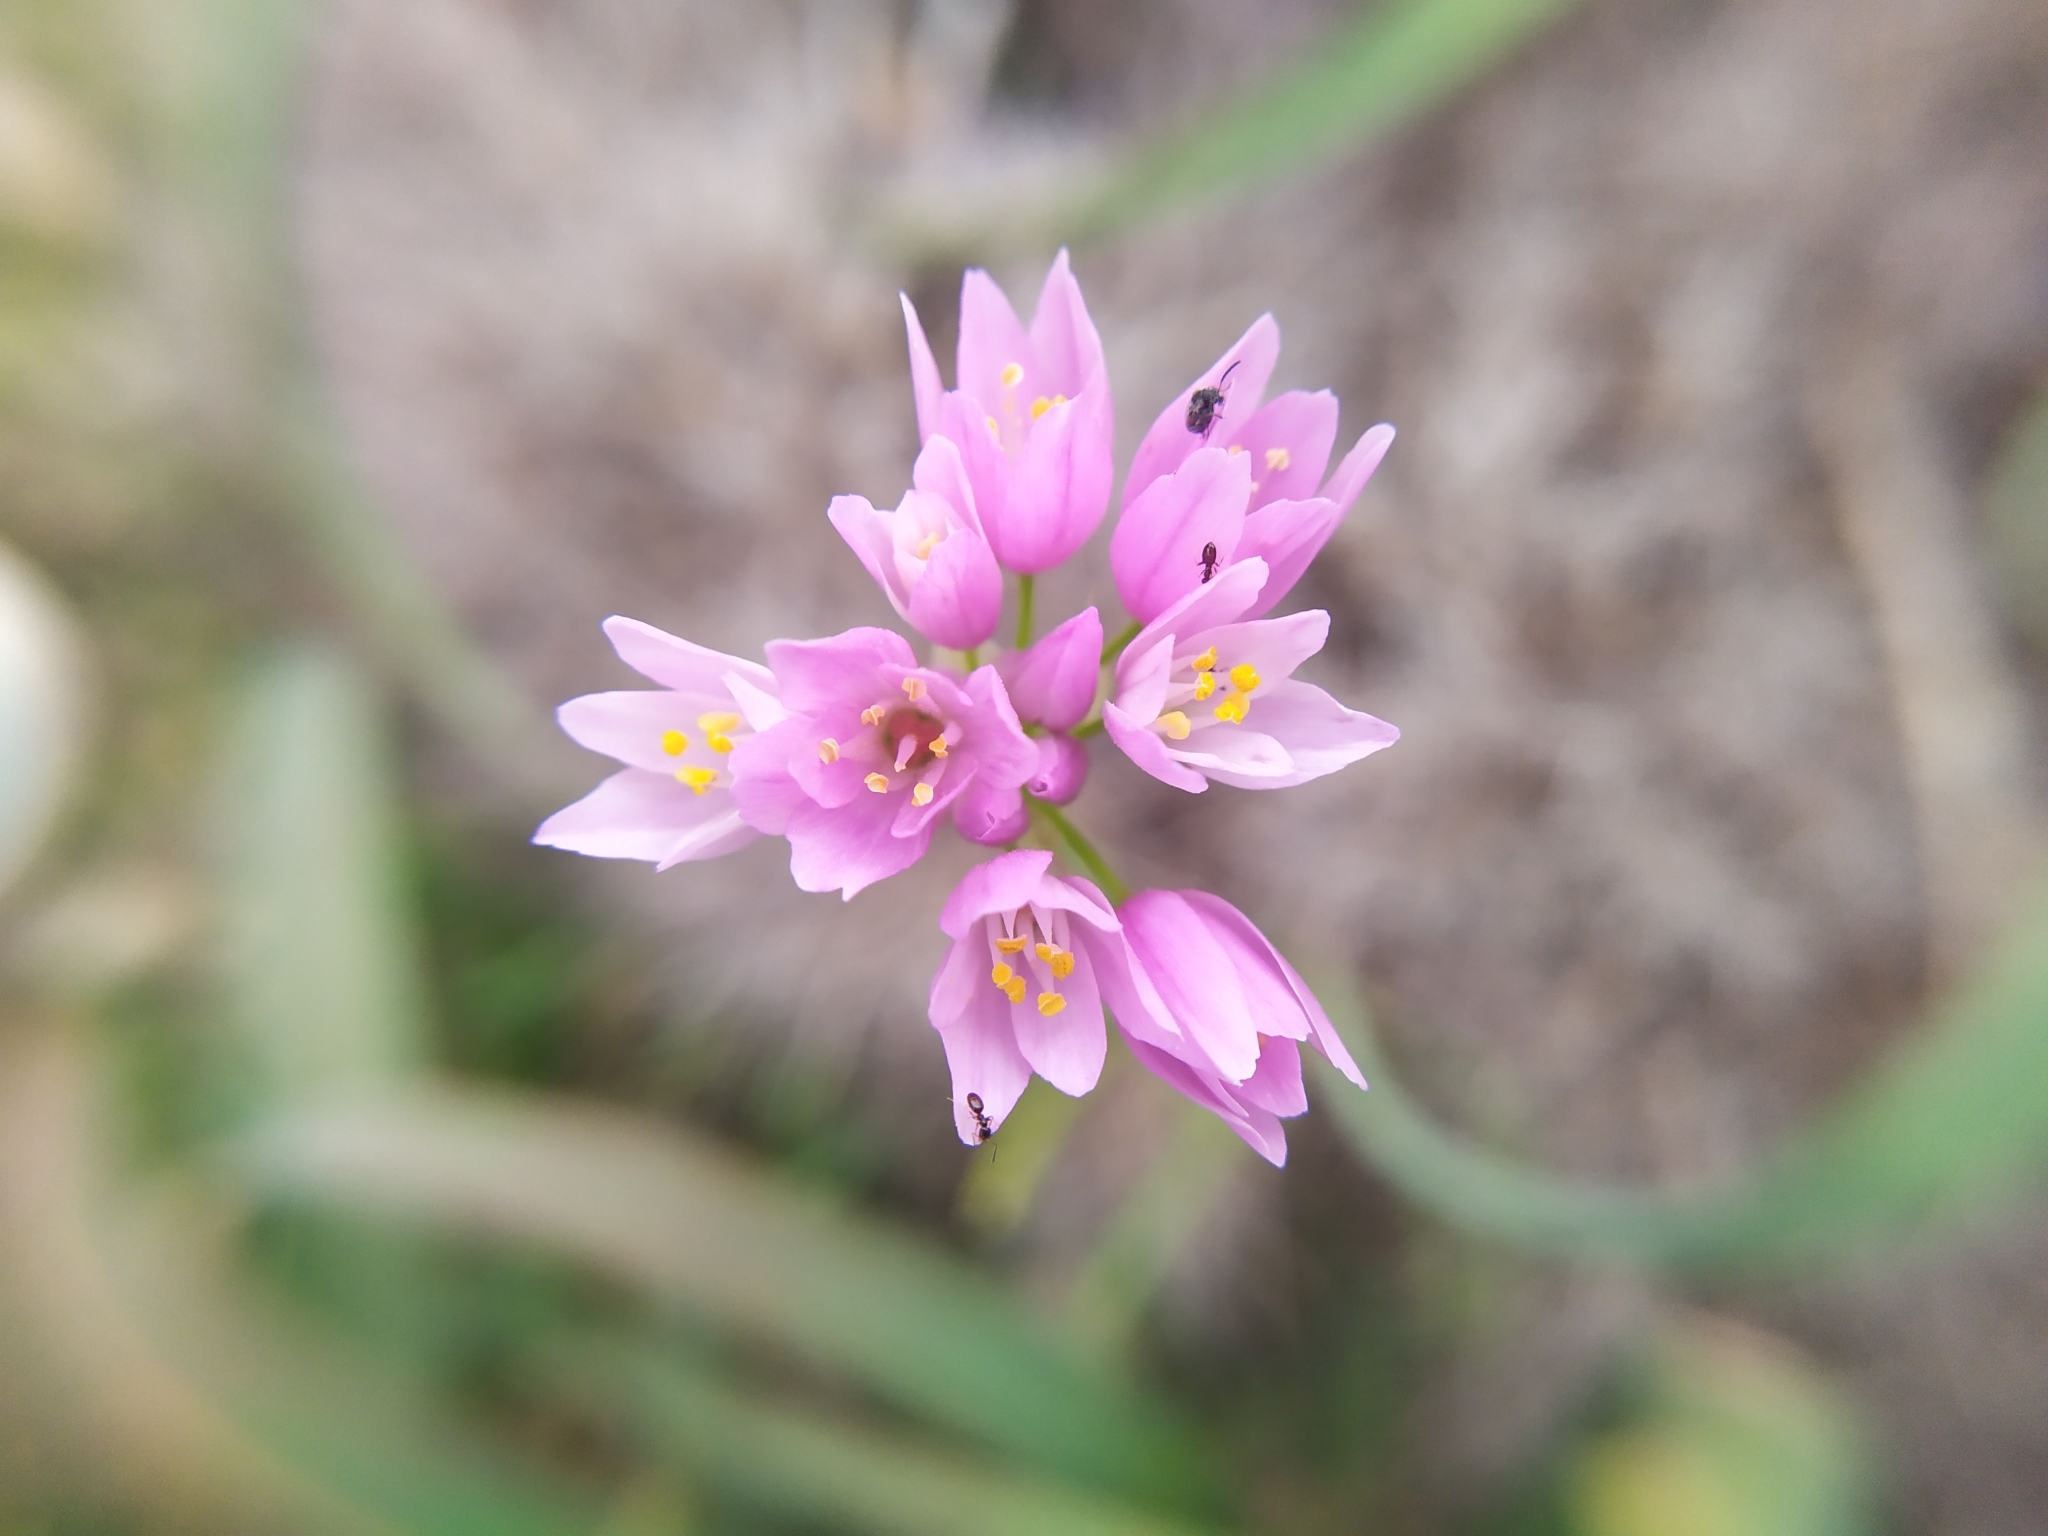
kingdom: Plantae
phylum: Tracheophyta
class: Liliopsida
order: Asparagales
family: Amaryllidaceae
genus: Allium
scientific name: Allium roseum
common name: Rosy garlic
